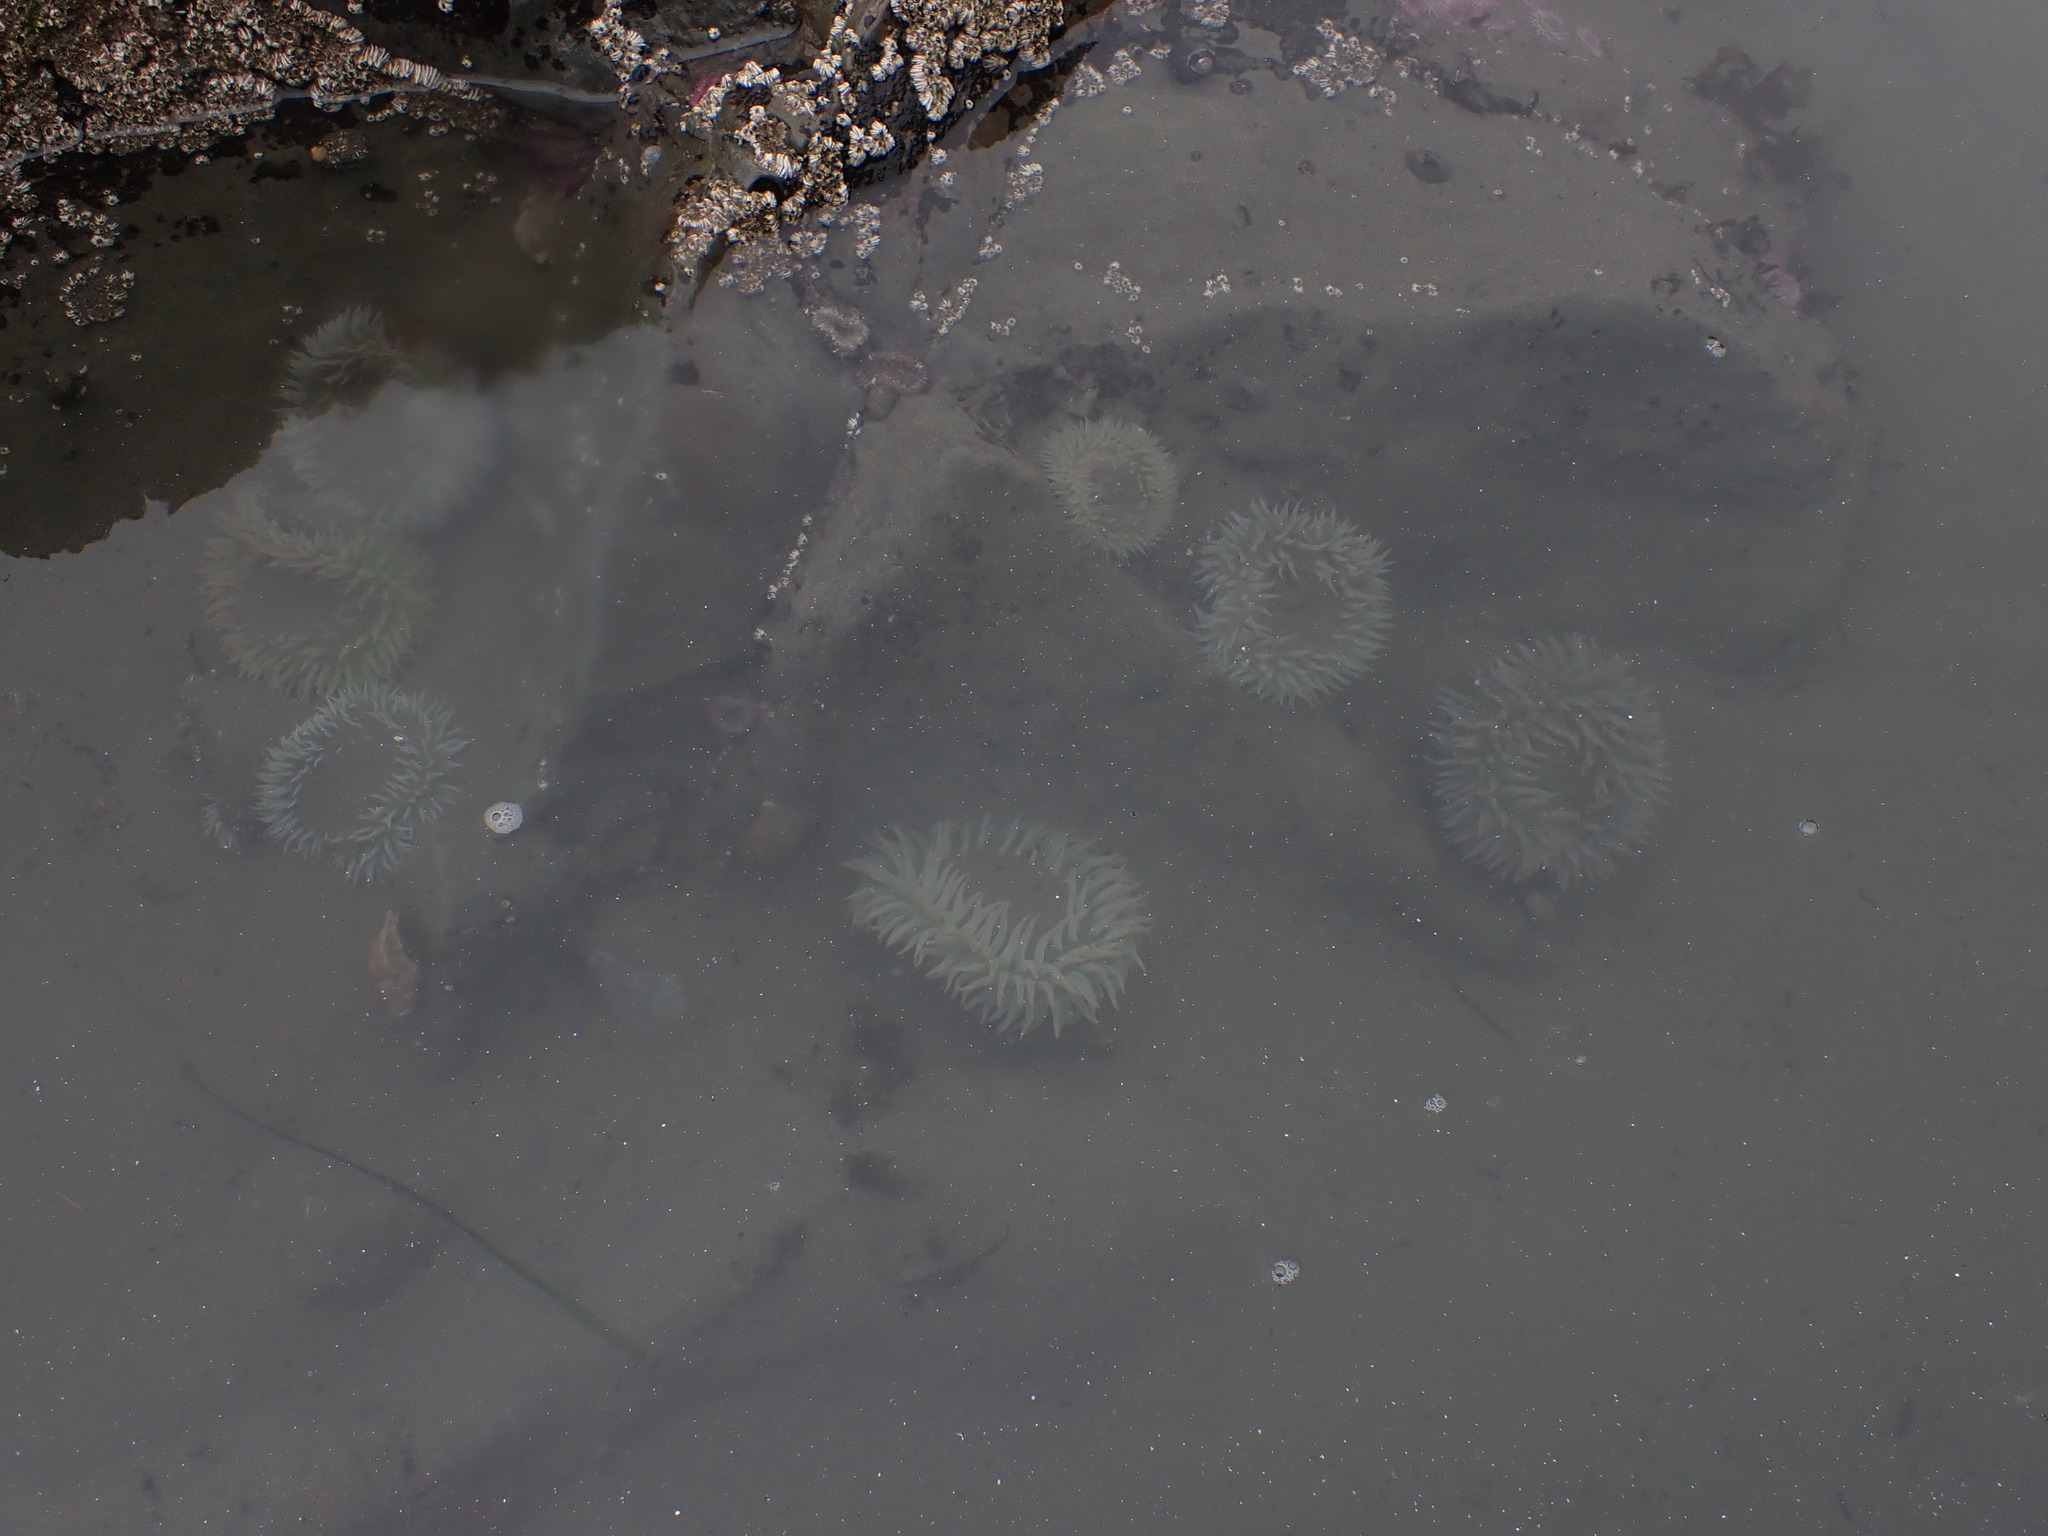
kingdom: Animalia
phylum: Cnidaria
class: Anthozoa
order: Actiniaria
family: Actiniidae
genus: Anthopleura
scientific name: Anthopleura xanthogrammica
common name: Giant green anemone
